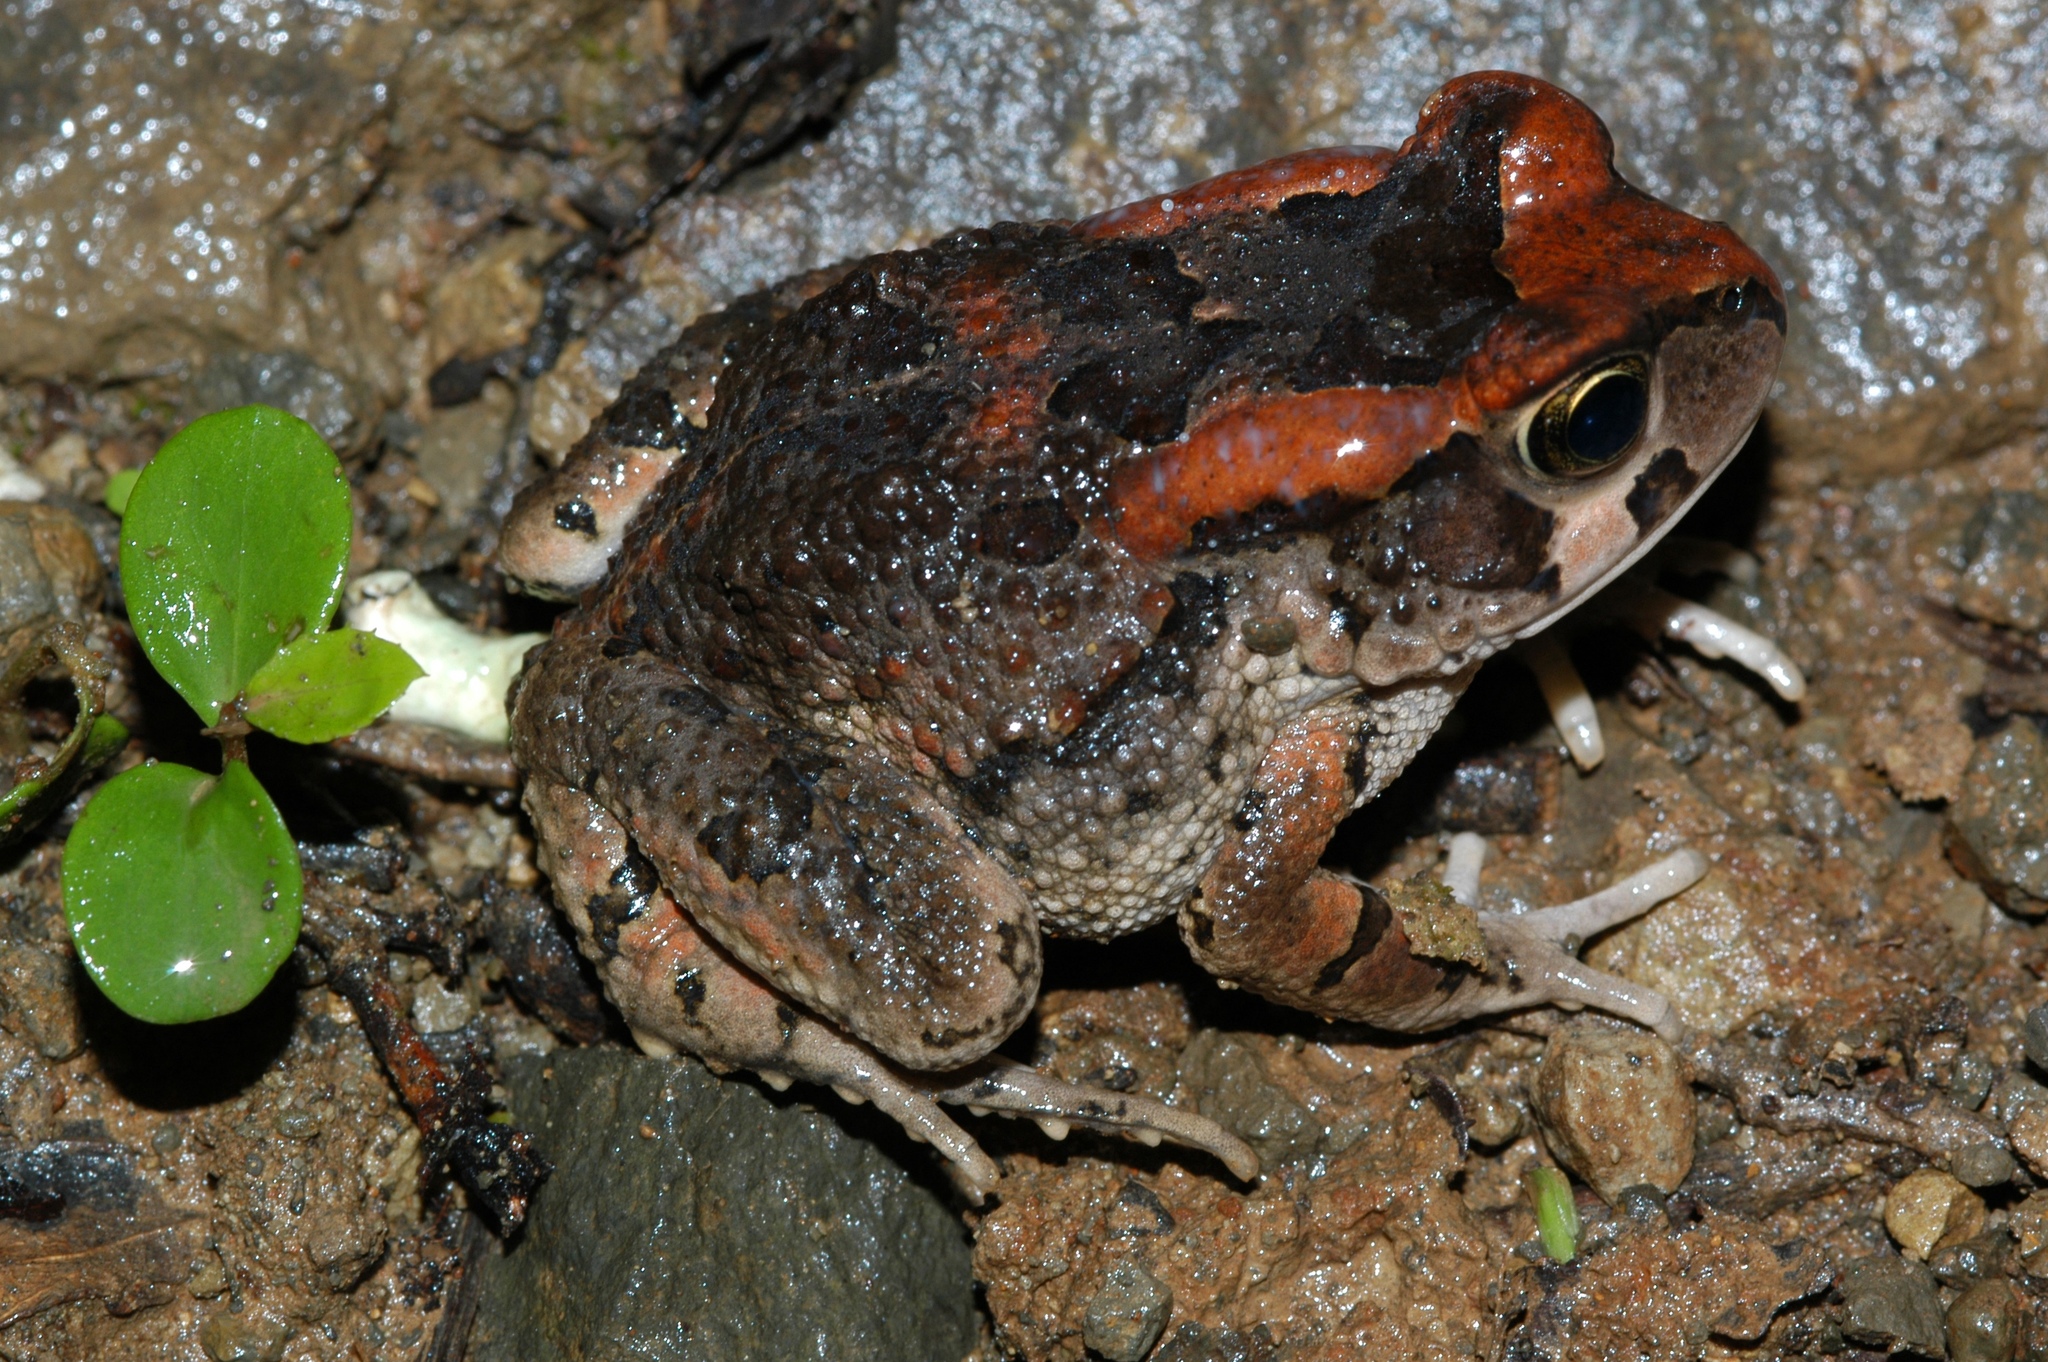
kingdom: Animalia
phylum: Chordata
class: Amphibia
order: Anura
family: Bufonidae
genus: Sclerophrys
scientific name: Sclerophrys capensis
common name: Ranger’s toad
